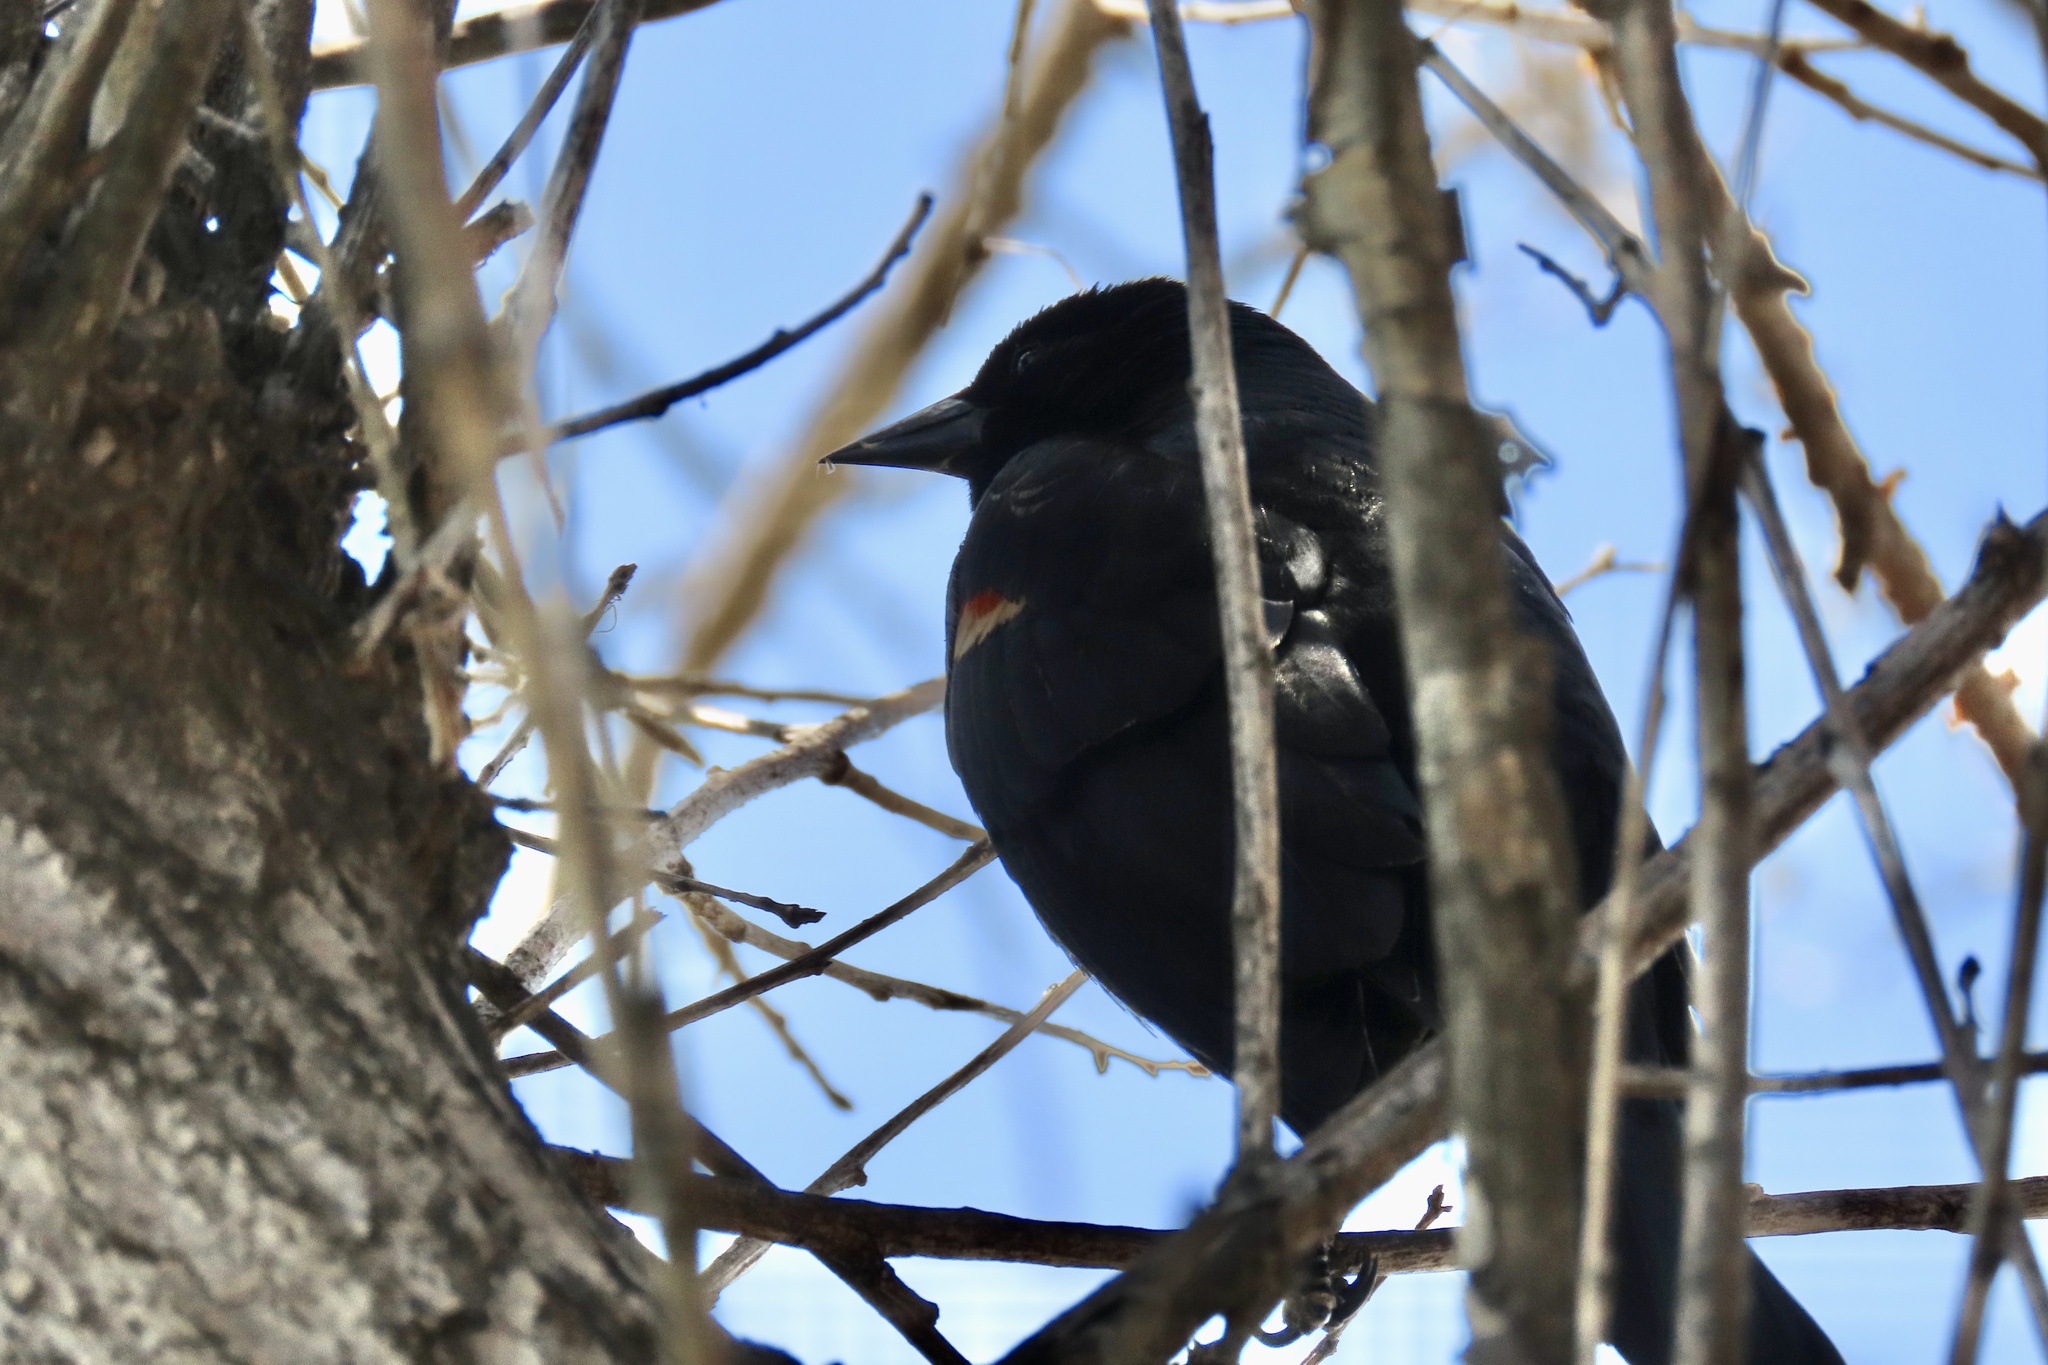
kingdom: Animalia
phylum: Chordata
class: Aves
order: Passeriformes
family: Icteridae
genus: Agelaius
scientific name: Agelaius phoeniceus
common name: Red-winged blackbird
